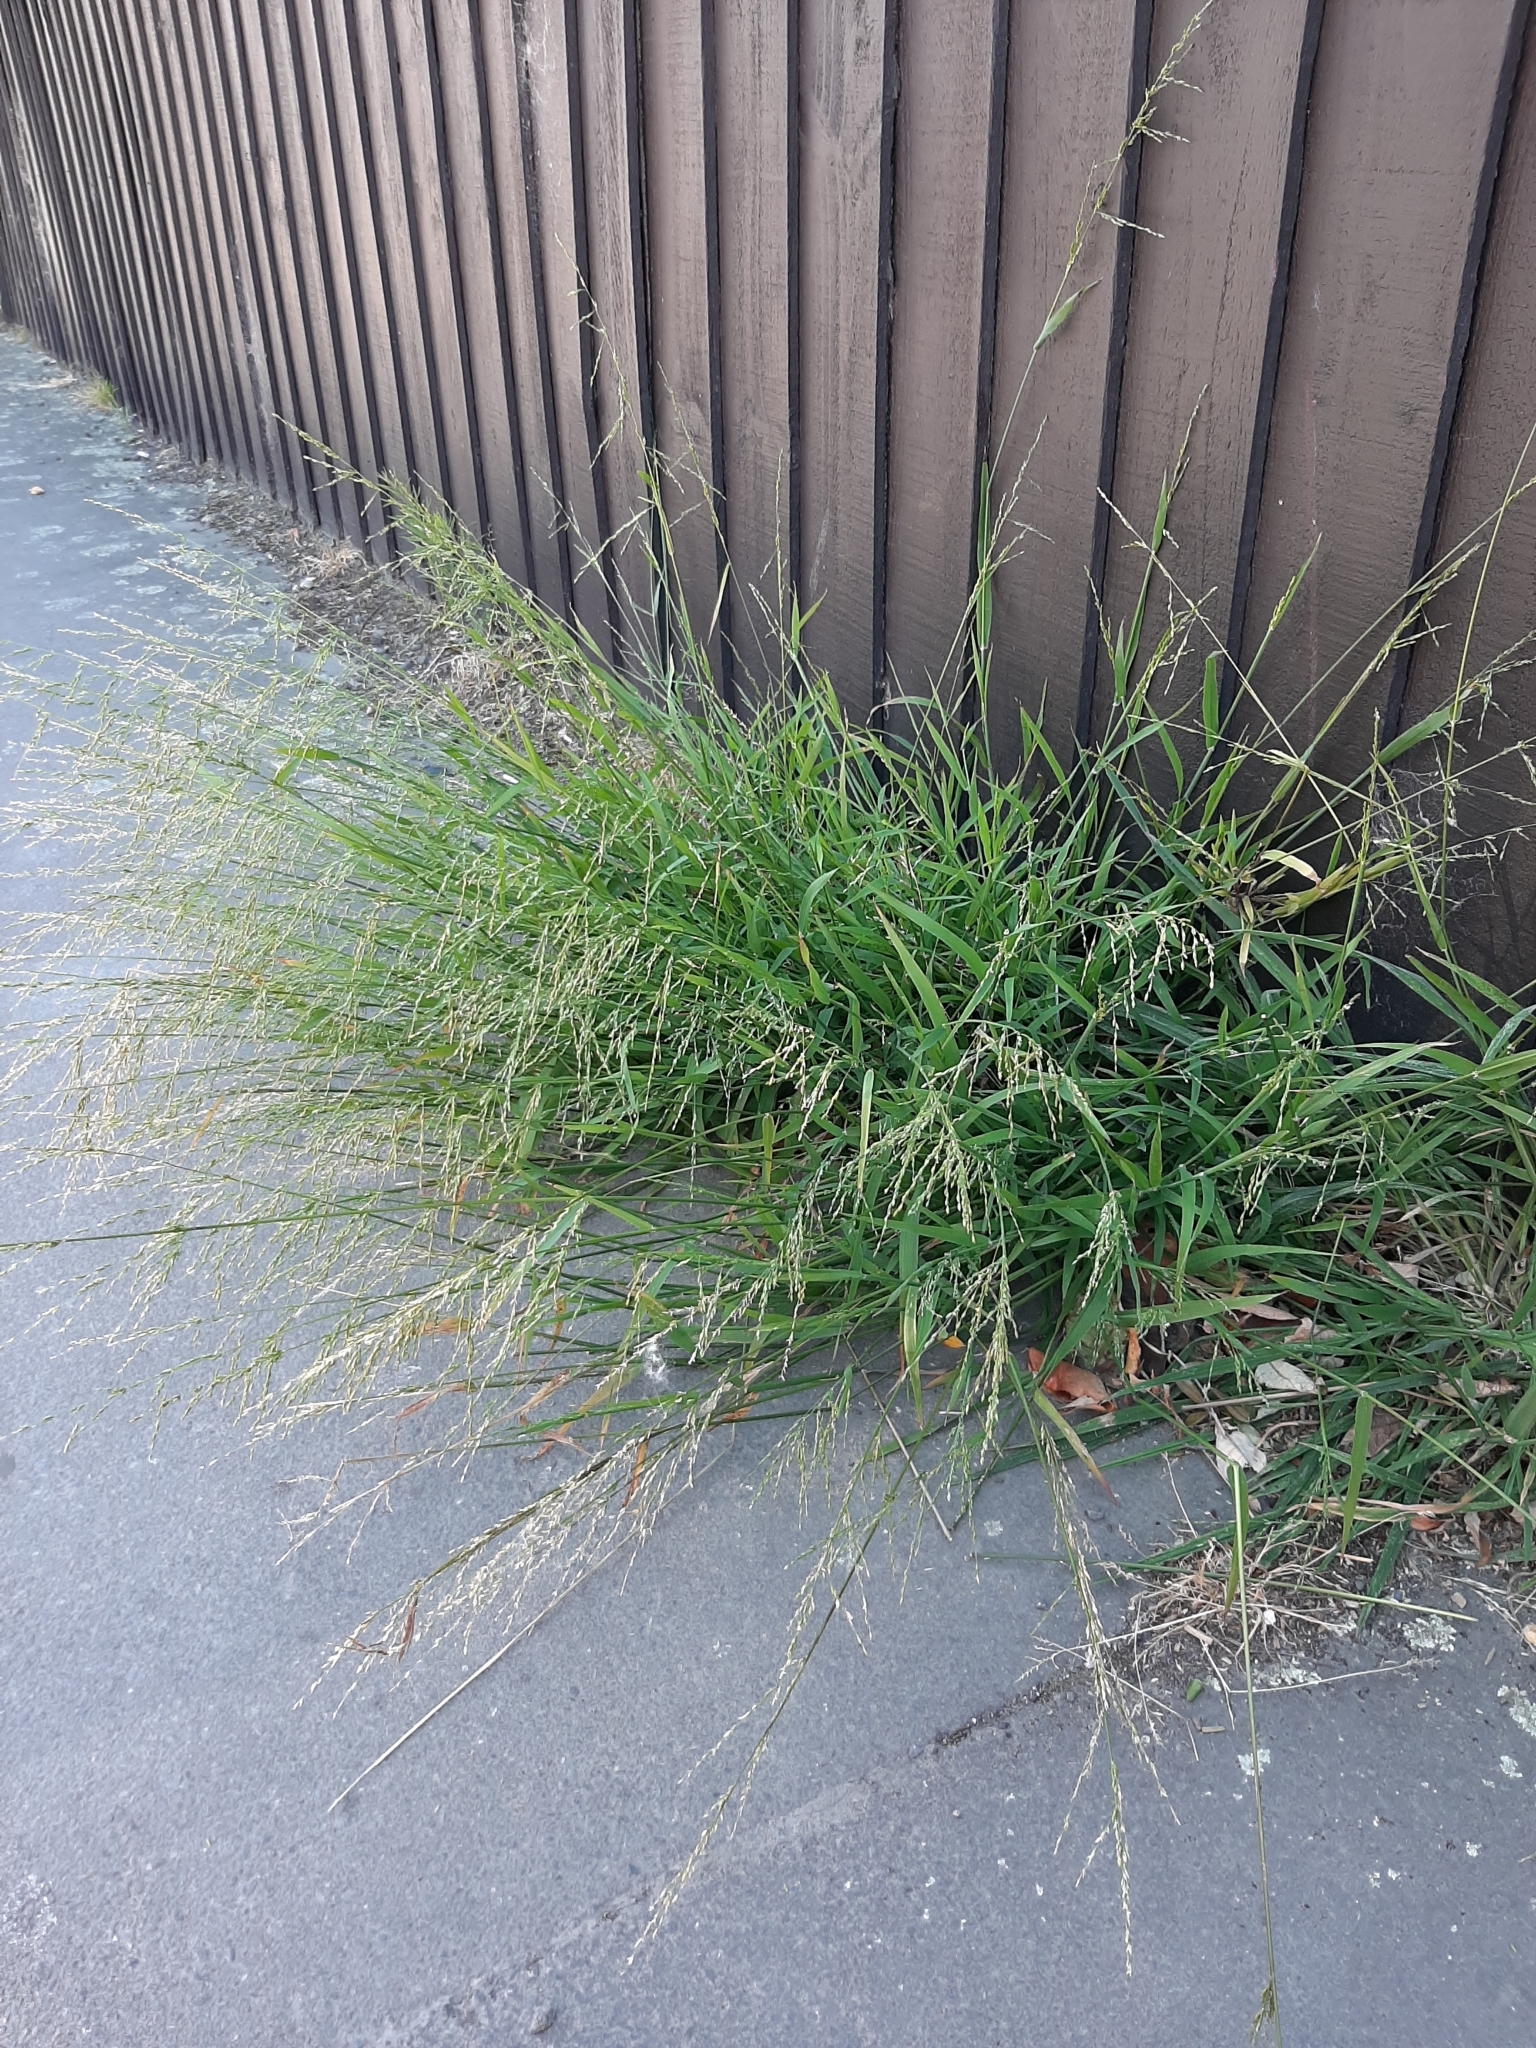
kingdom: Plantae
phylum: Tracheophyta
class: Liliopsida
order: Poales
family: Poaceae
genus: Ehrharta
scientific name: Ehrharta erecta
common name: Panic veldtgrass
